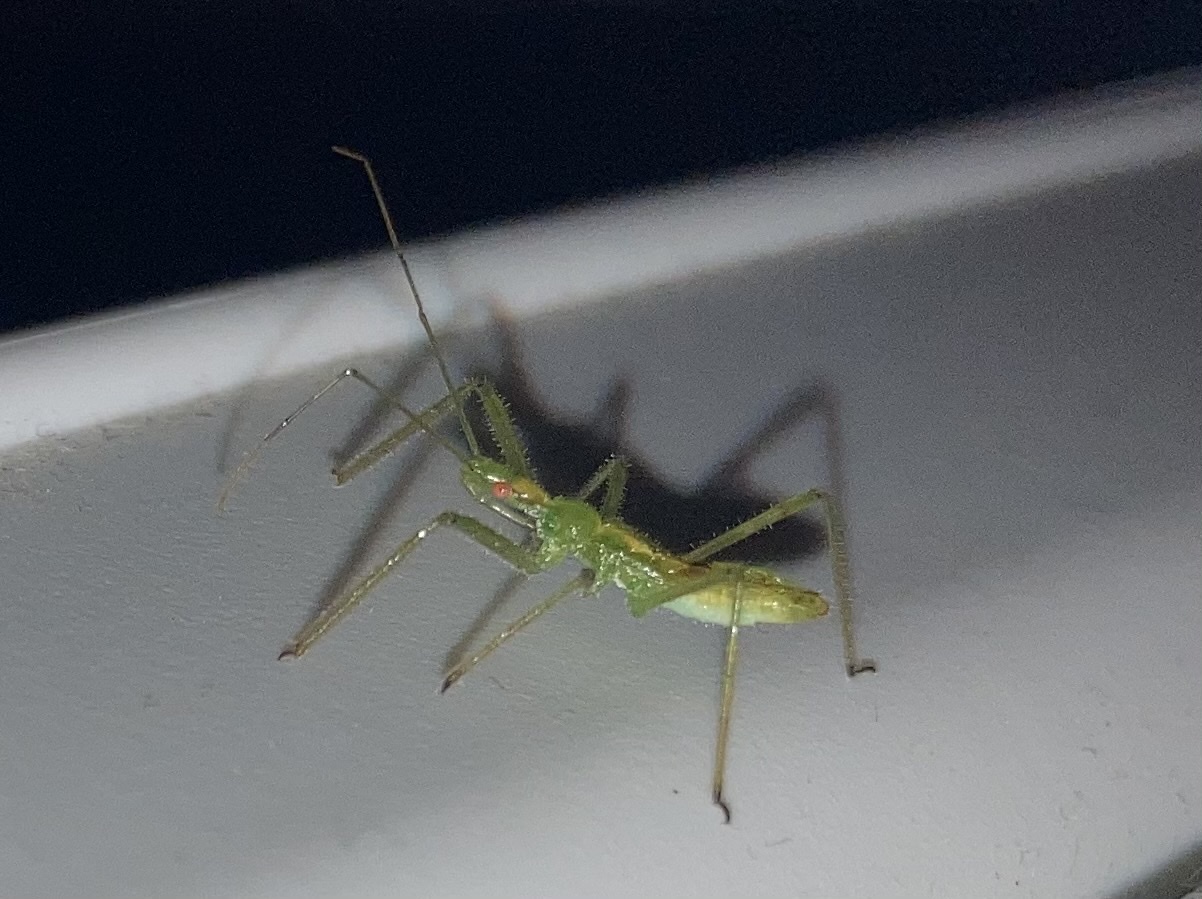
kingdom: Animalia
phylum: Arthropoda
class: Insecta
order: Hemiptera
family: Reduviidae
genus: Zelus
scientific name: Zelus luridus
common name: Pale green assassin bug
